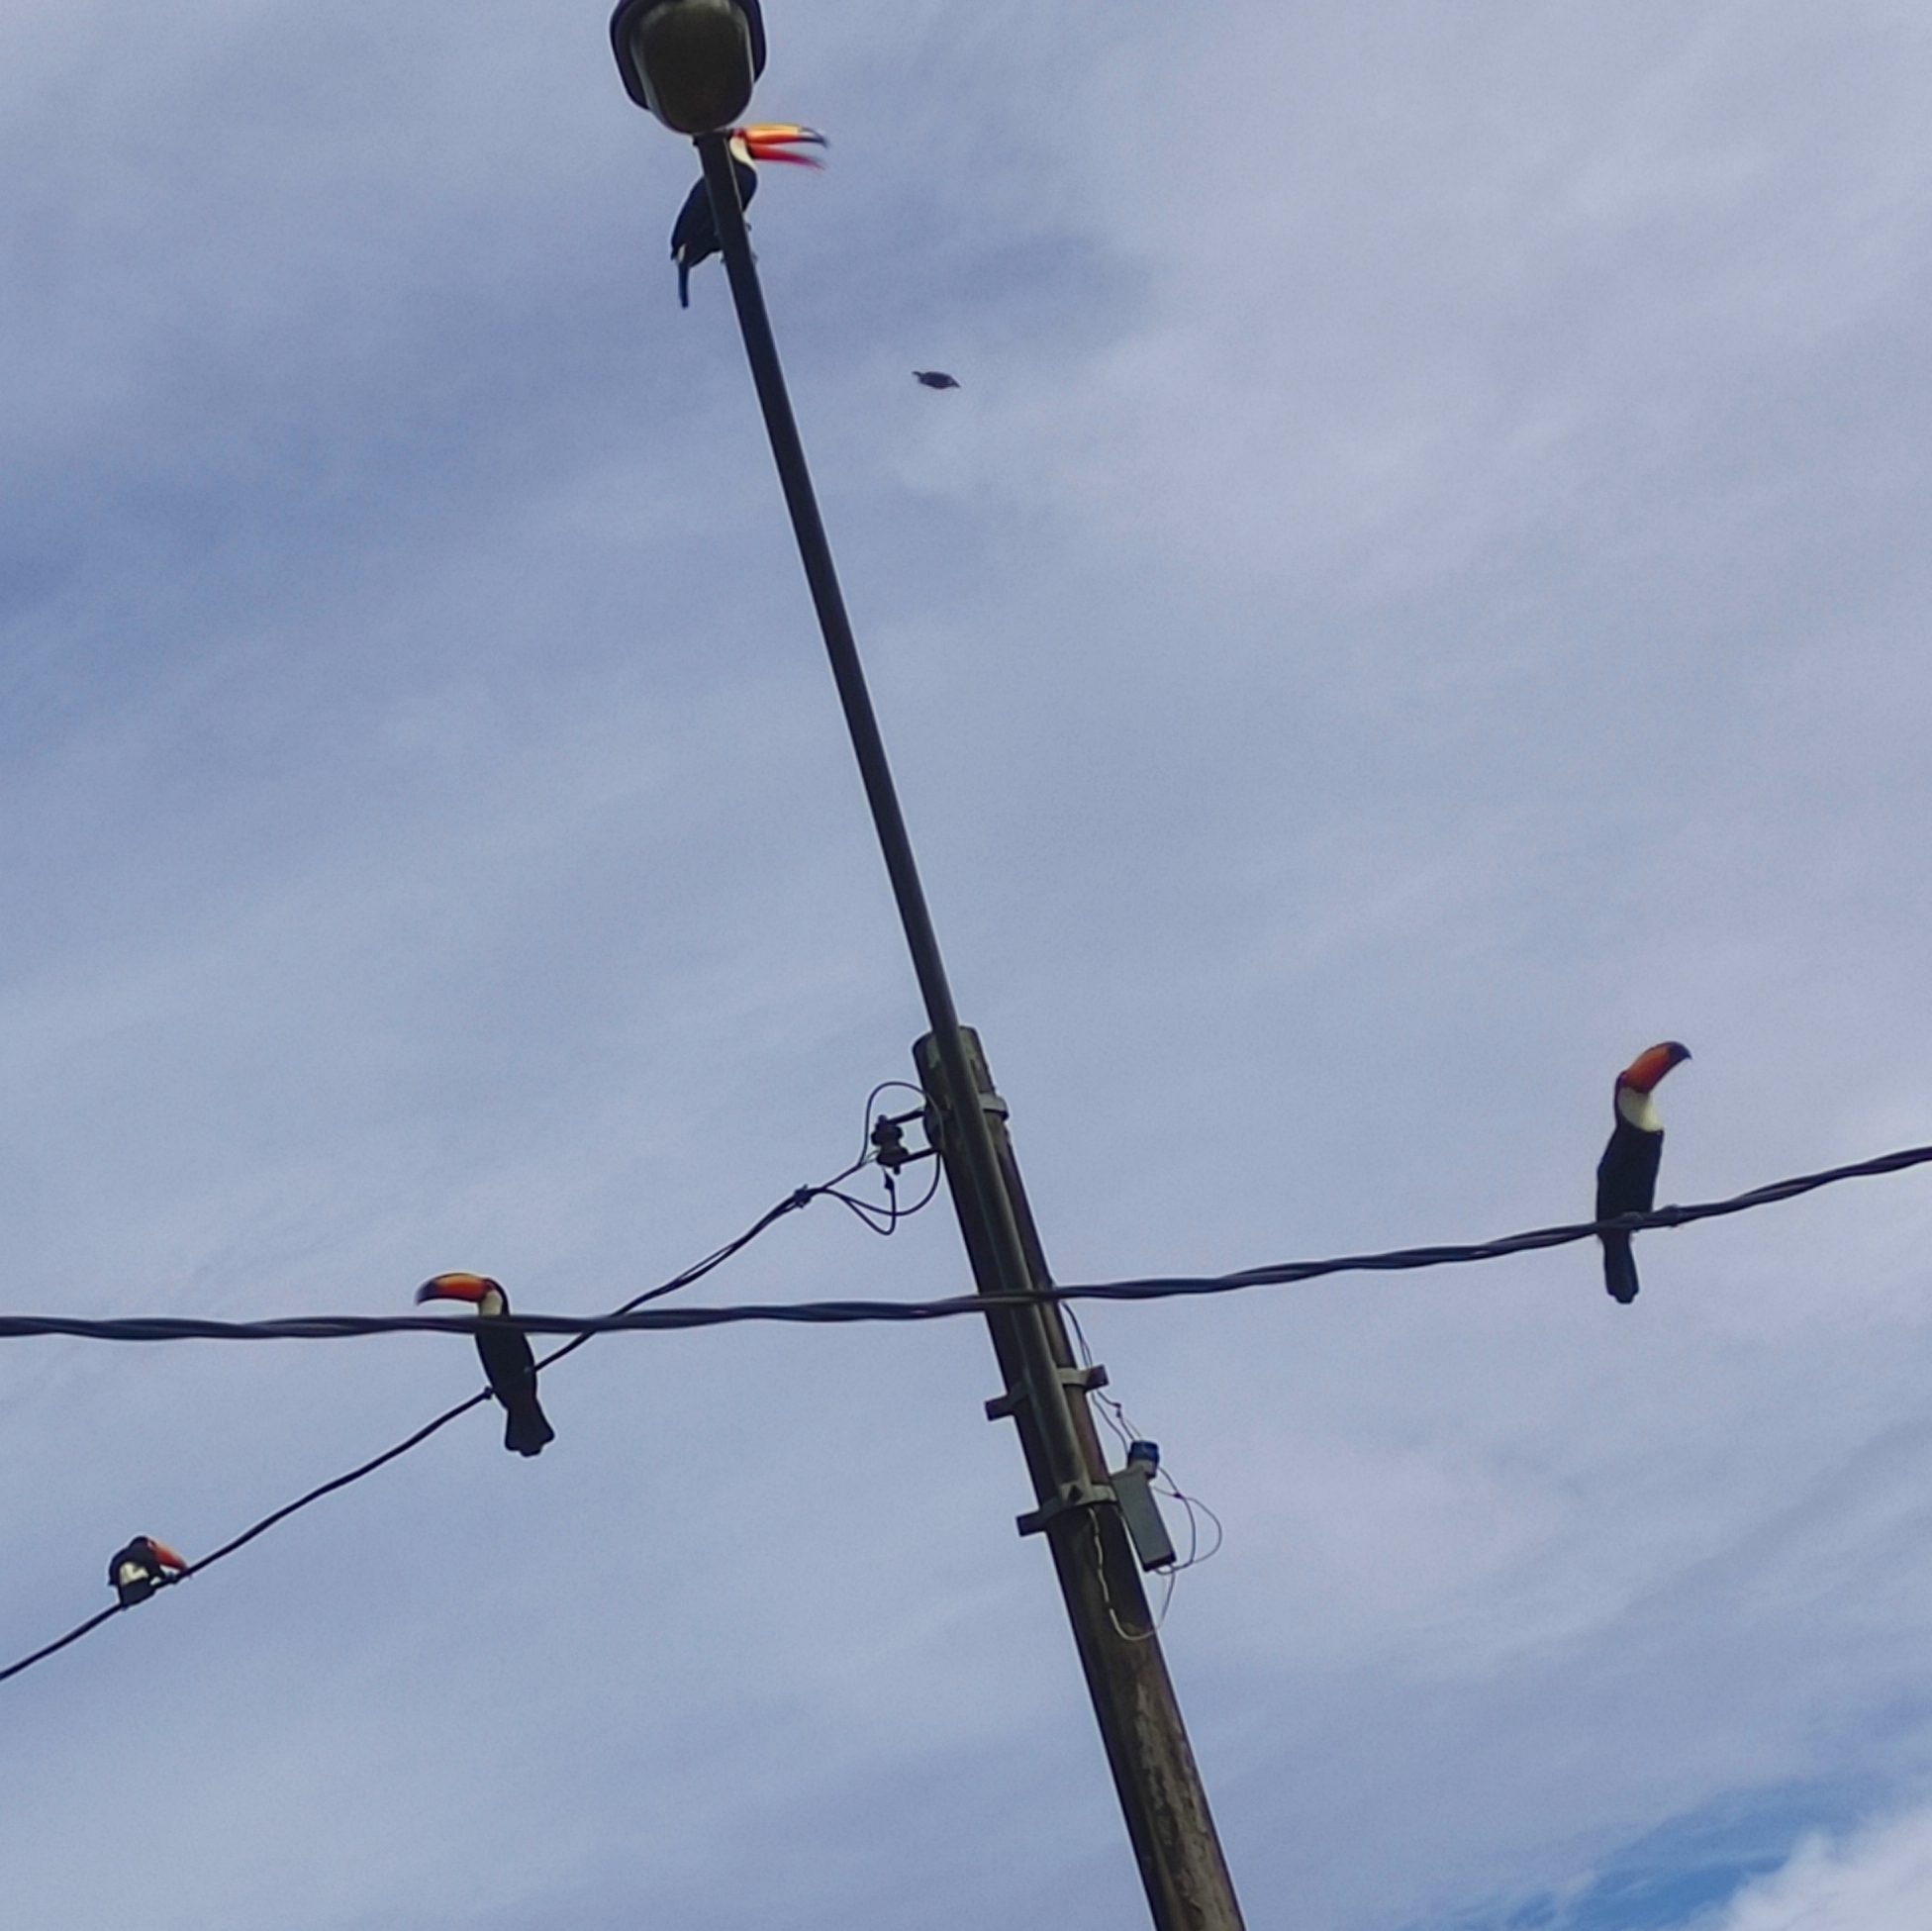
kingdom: Animalia
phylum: Chordata
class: Aves
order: Piciformes
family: Ramphastidae
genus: Ramphastos
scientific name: Ramphastos toco
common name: Toco toucan
